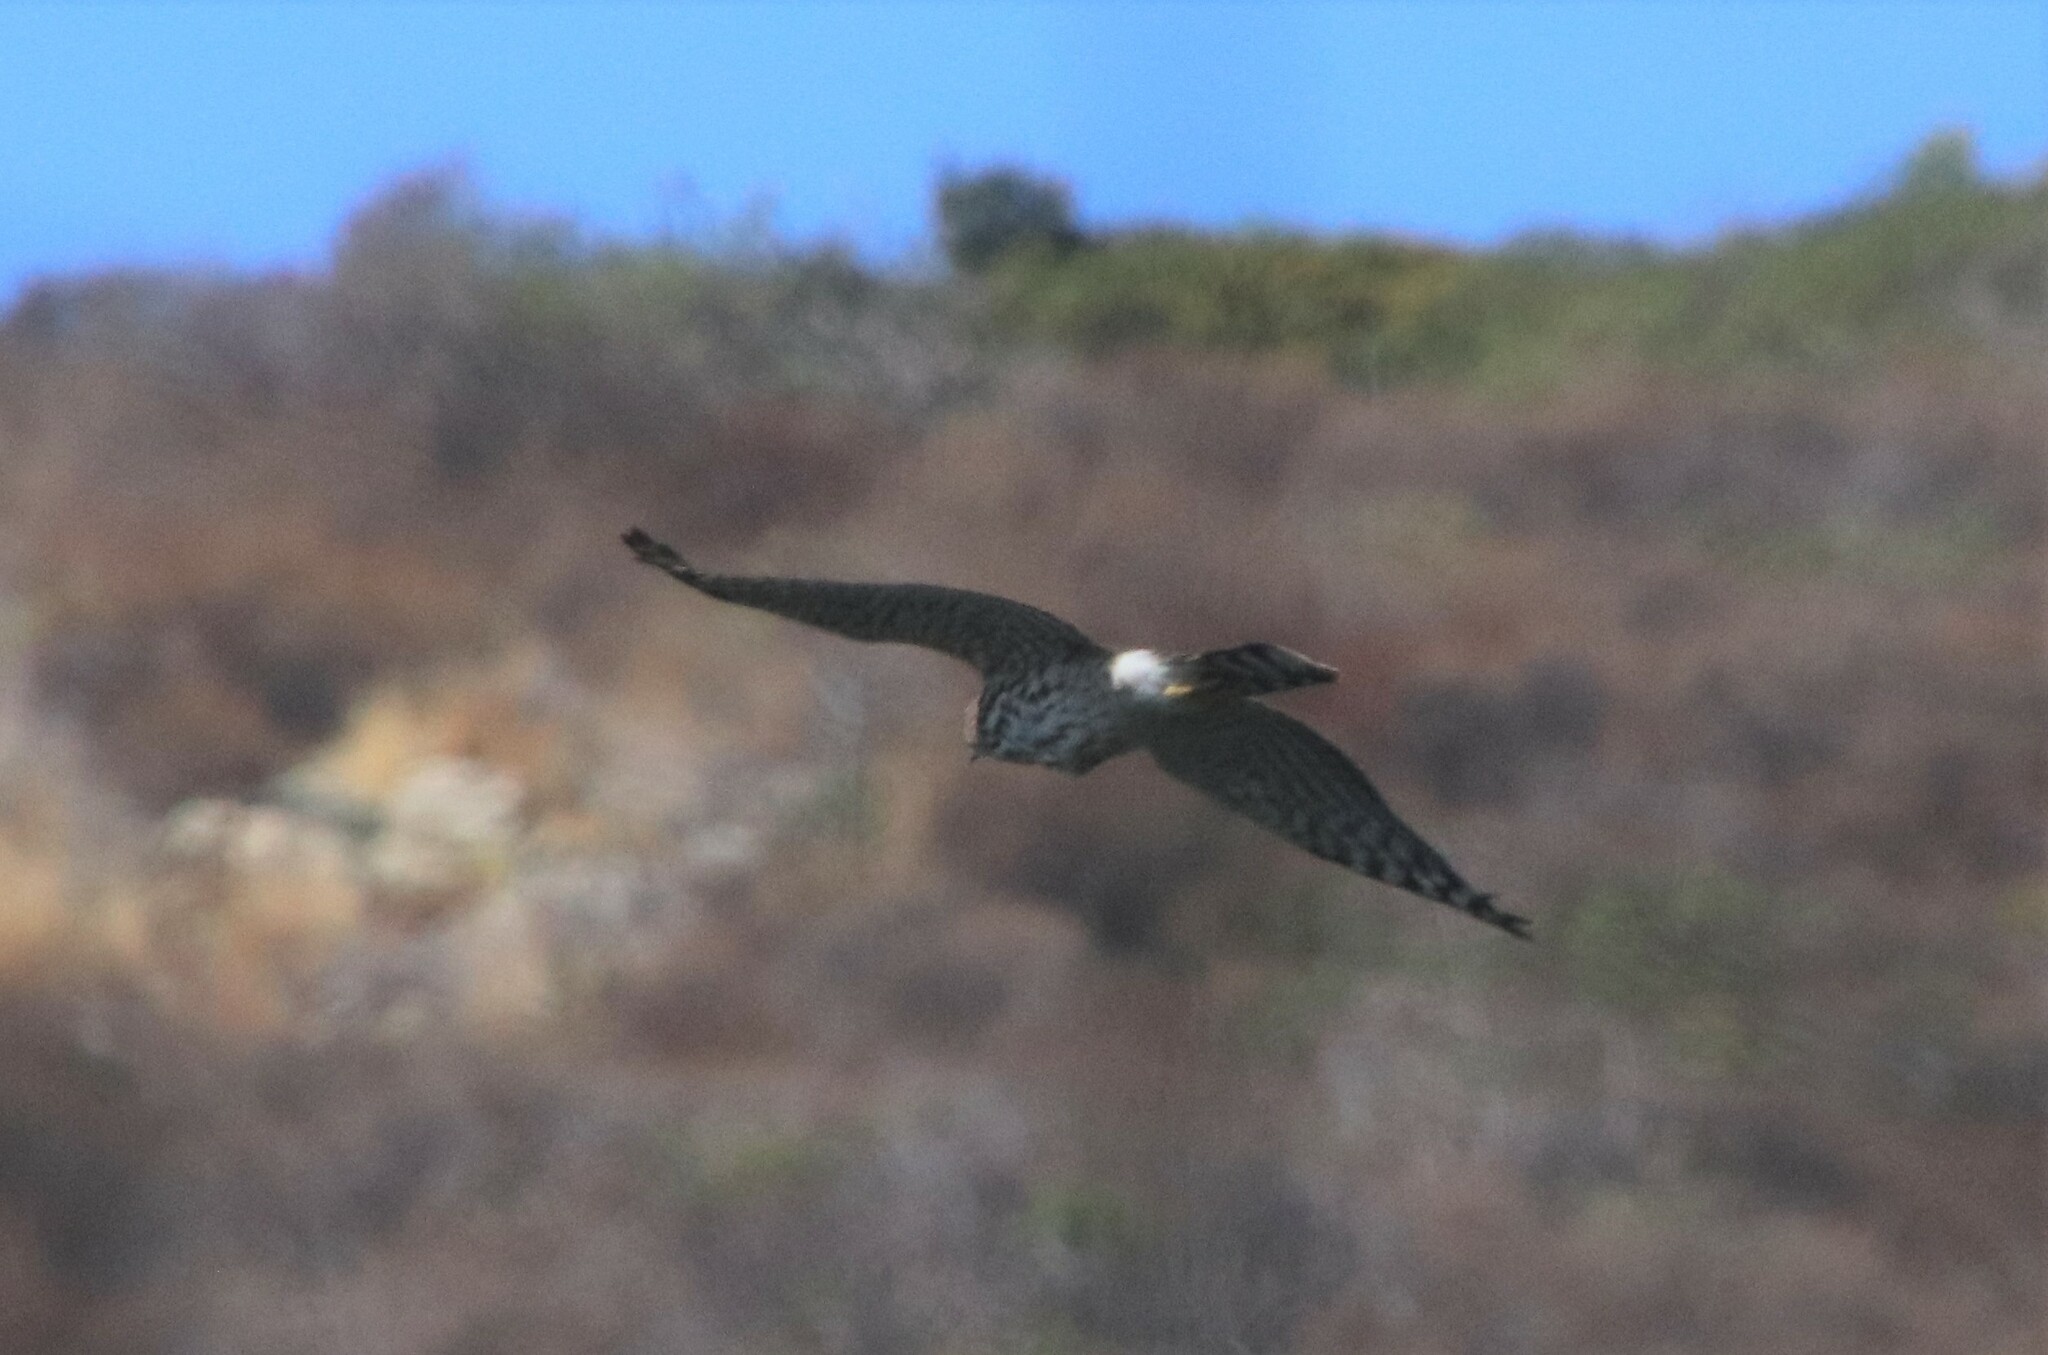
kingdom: Animalia
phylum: Chordata
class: Aves
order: Accipitriformes
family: Accipitridae
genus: Accipiter
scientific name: Accipiter cooperii
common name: Cooper's hawk
